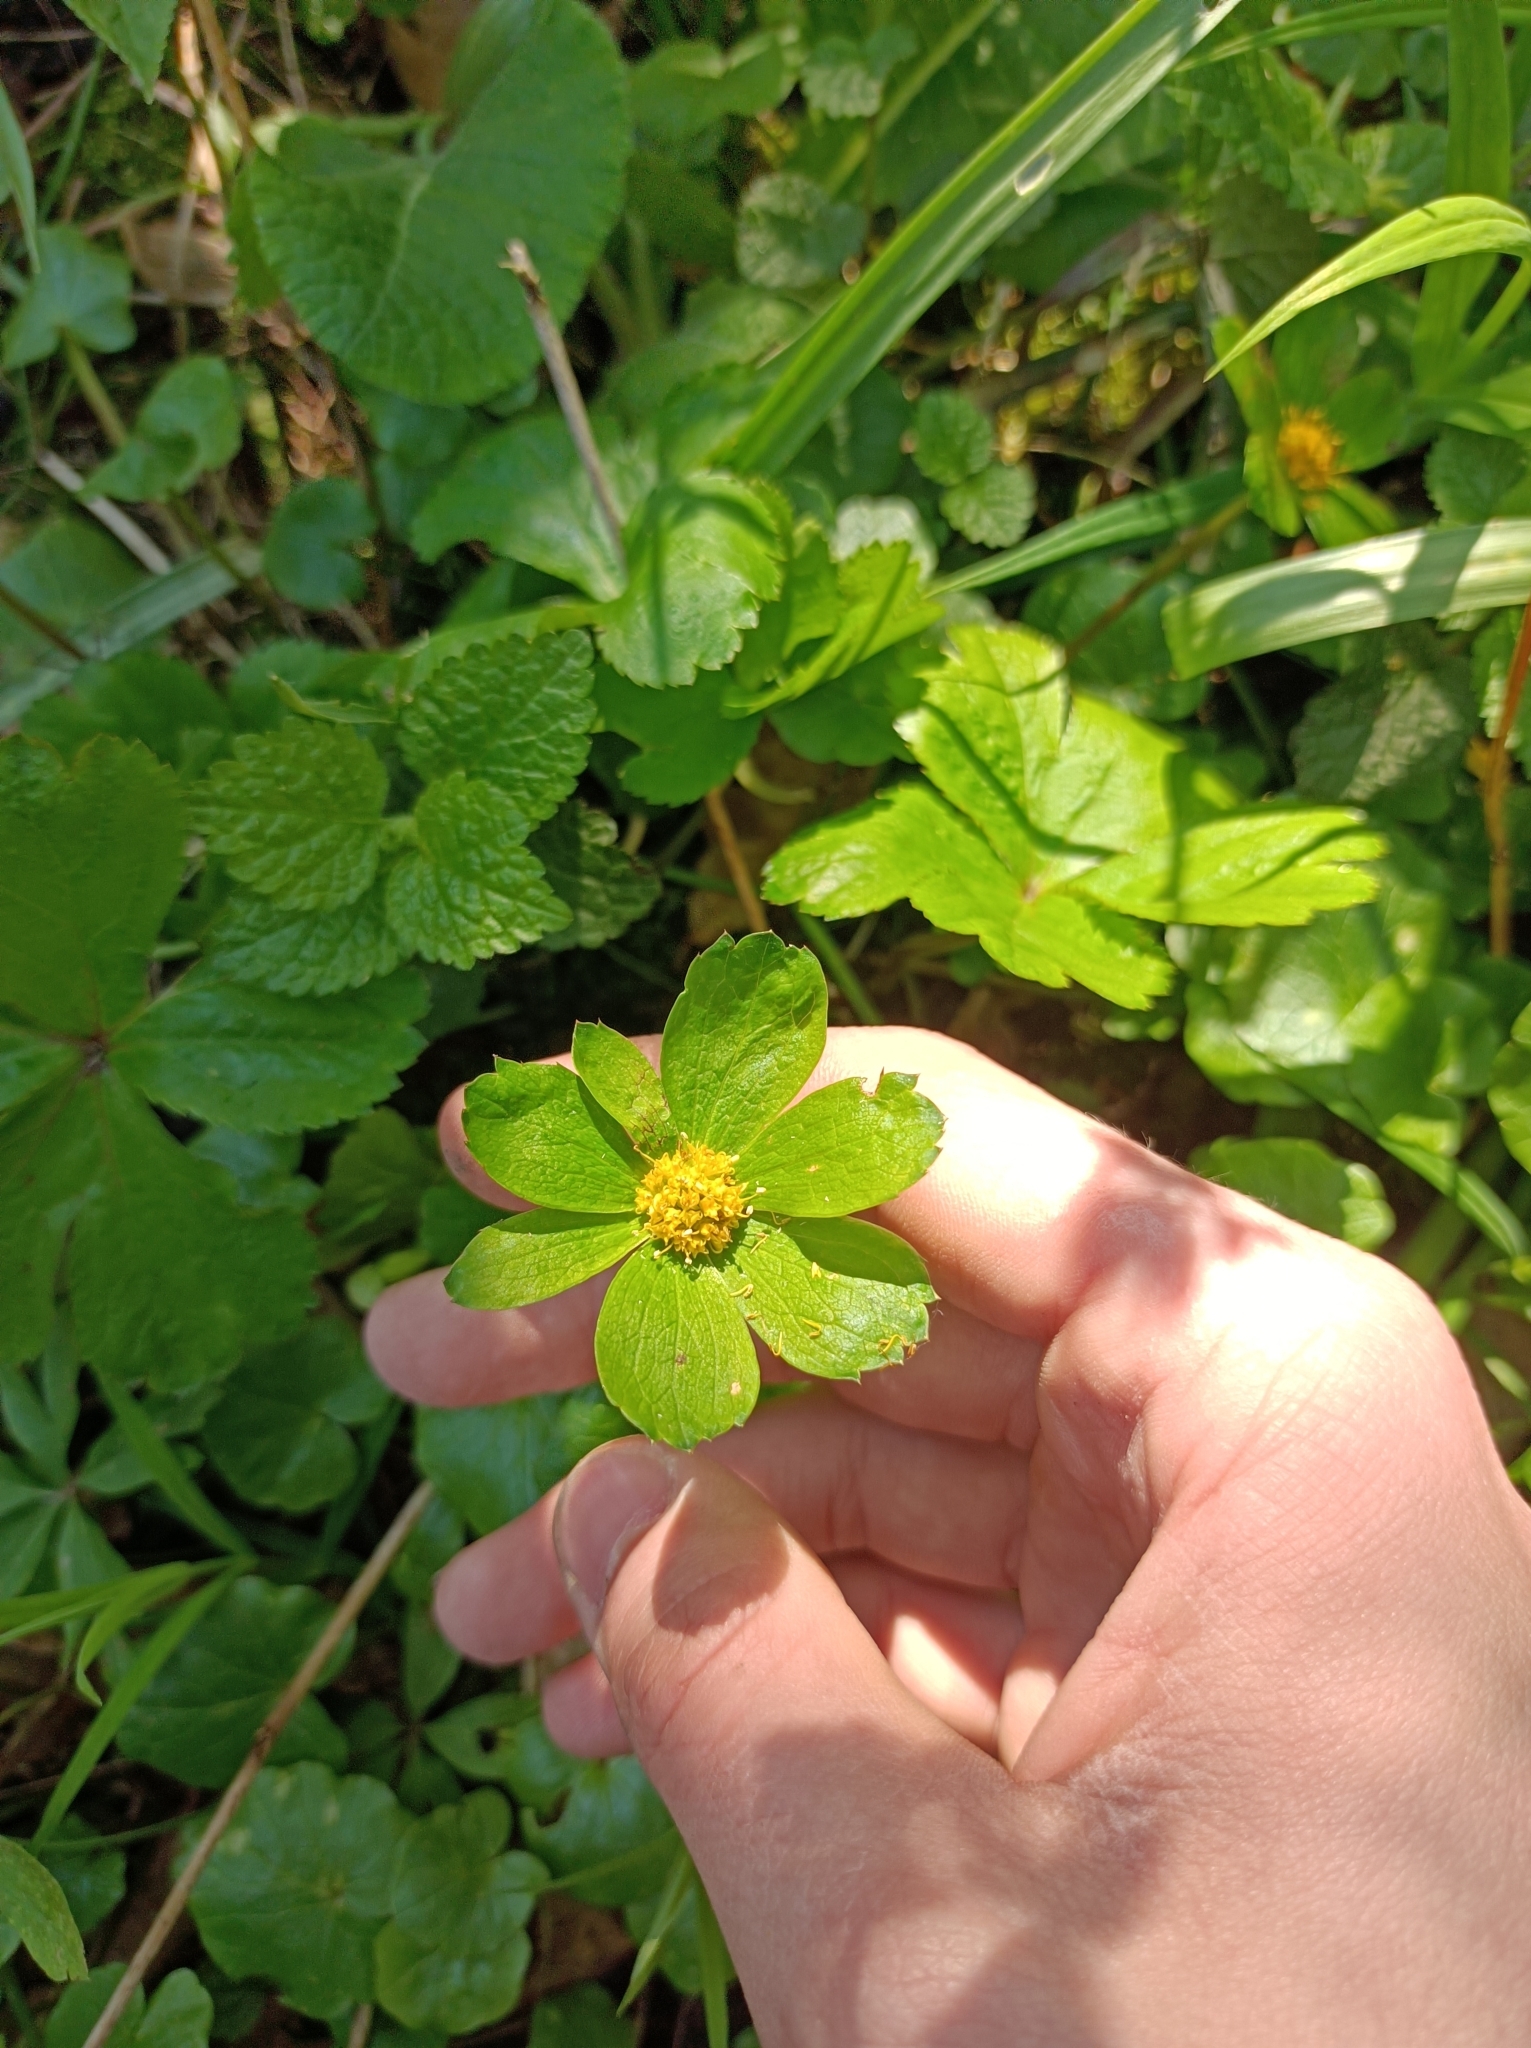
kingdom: Plantae
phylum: Tracheophyta
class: Magnoliopsida
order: Apiales
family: Apiaceae
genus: Sanicula
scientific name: Sanicula epipactis
